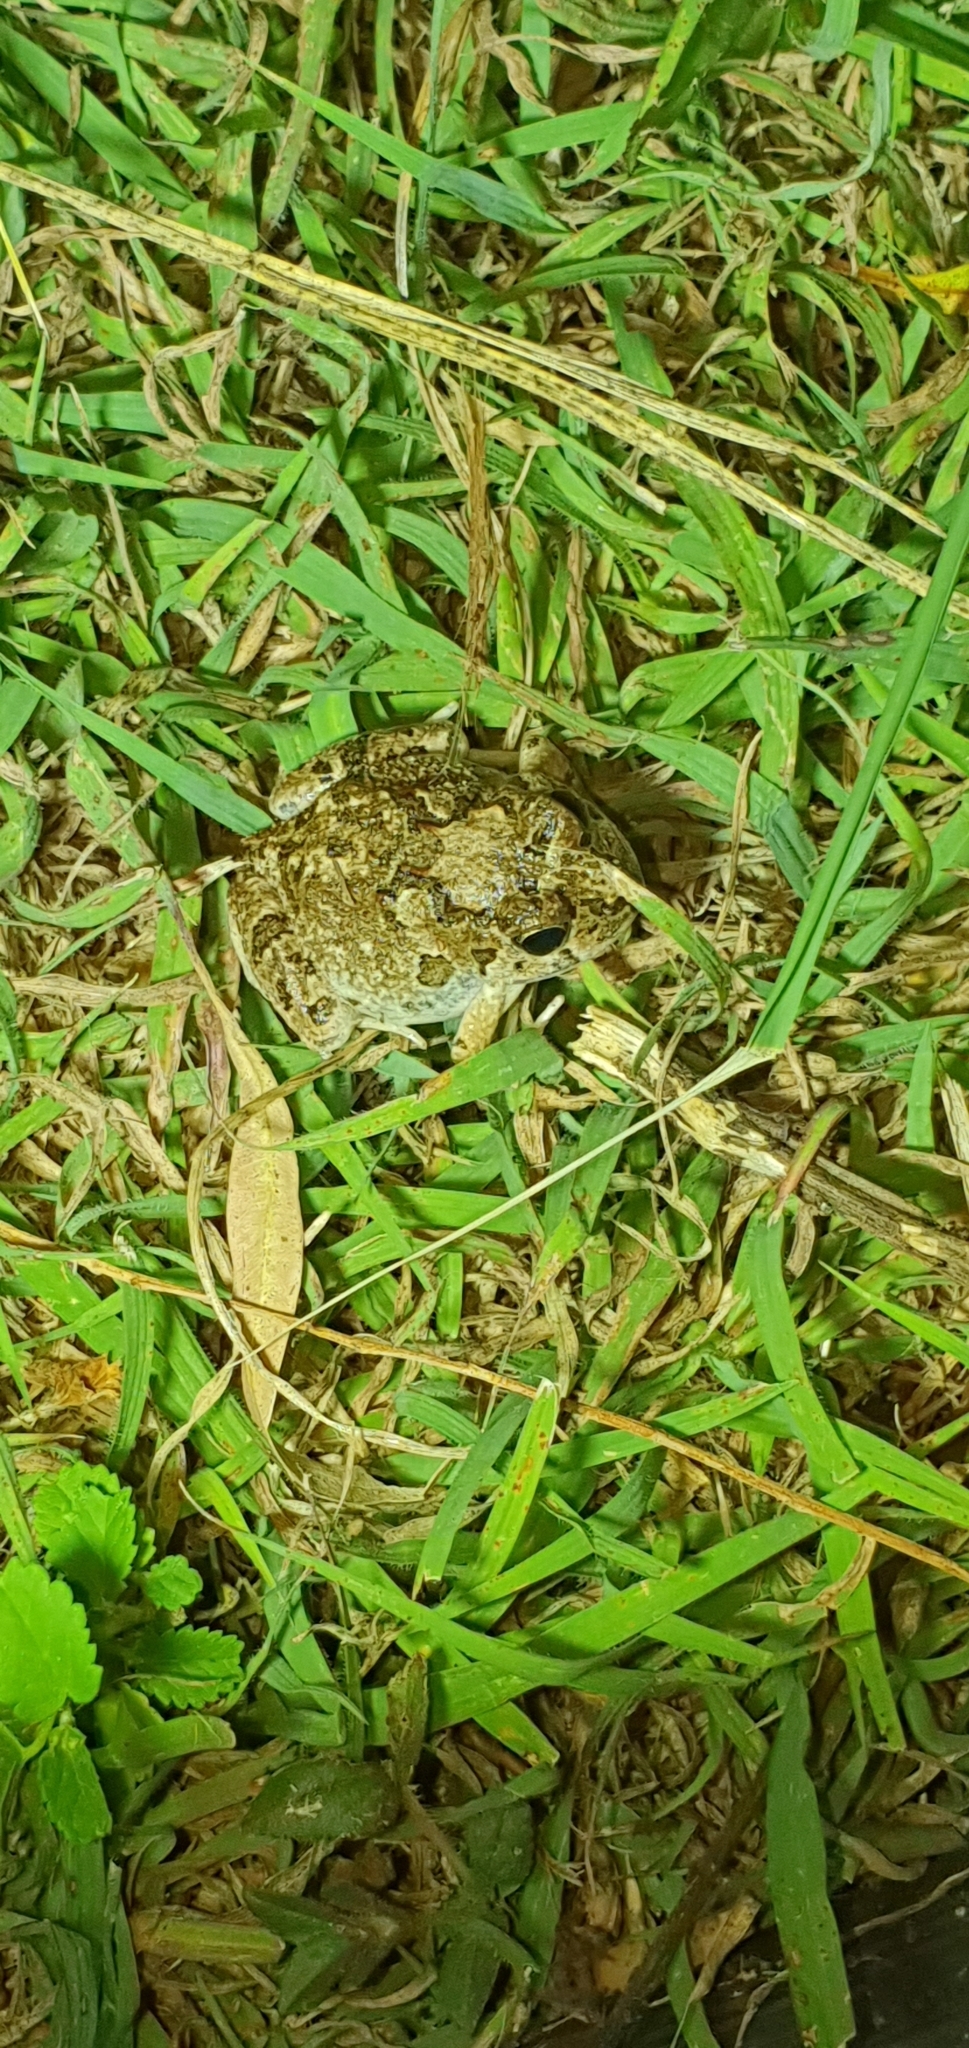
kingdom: Animalia
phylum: Chordata
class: Amphibia
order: Anura
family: Limnodynastidae
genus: Platyplectrum
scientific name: Platyplectrum ornatum
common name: Ornate burrowing frog
